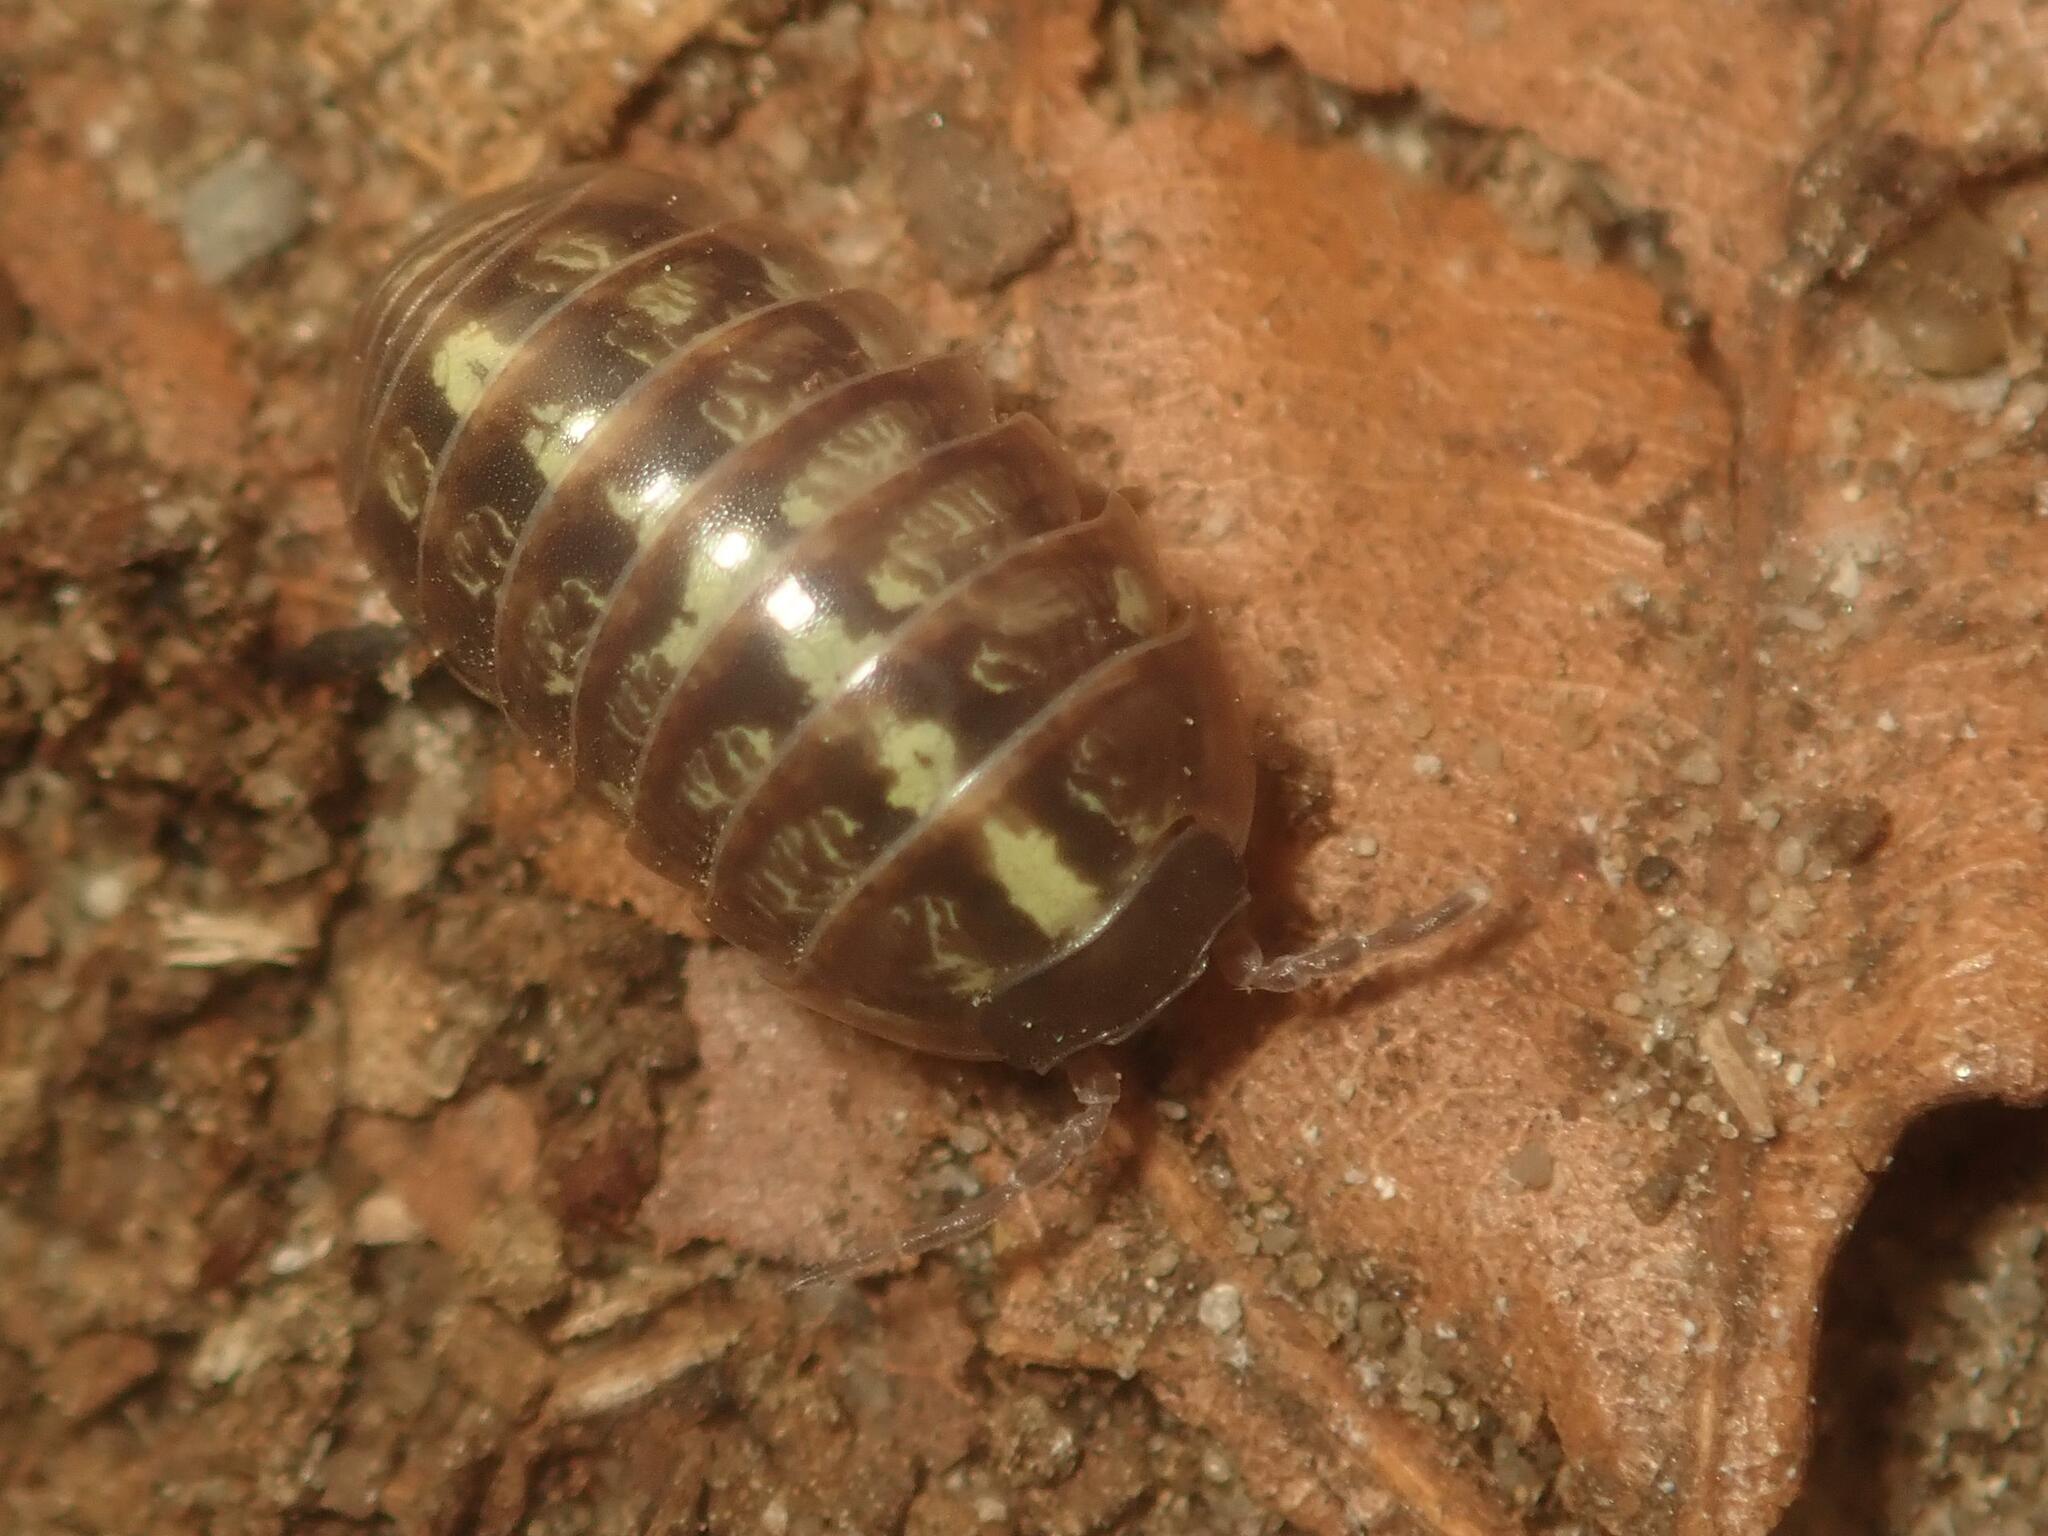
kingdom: Animalia
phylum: Arthropoda
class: Malacostraca
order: Isopoda
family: Armadillidiidae
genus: Armadillidium
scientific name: Armadillidium vulgare
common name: Common pill woodlouse
